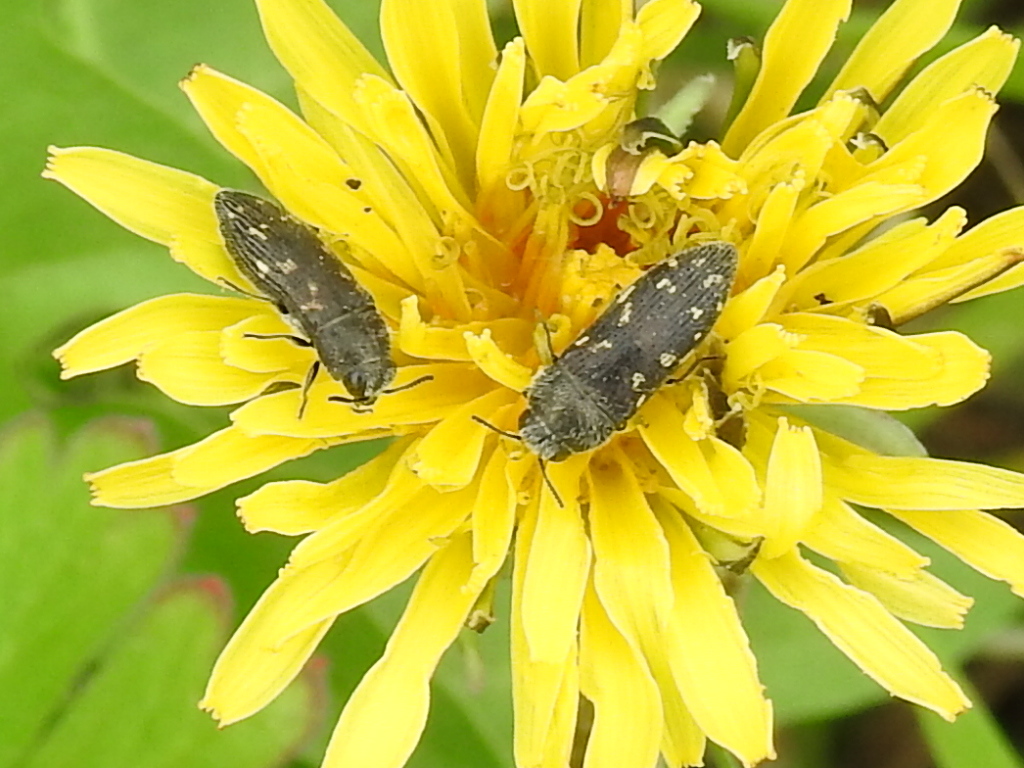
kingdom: Animalia
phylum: Arthropoda
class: Insecta
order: Coleoptera
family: Buprestidae
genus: Acmaeodera
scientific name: Acmaeodera tubulus
